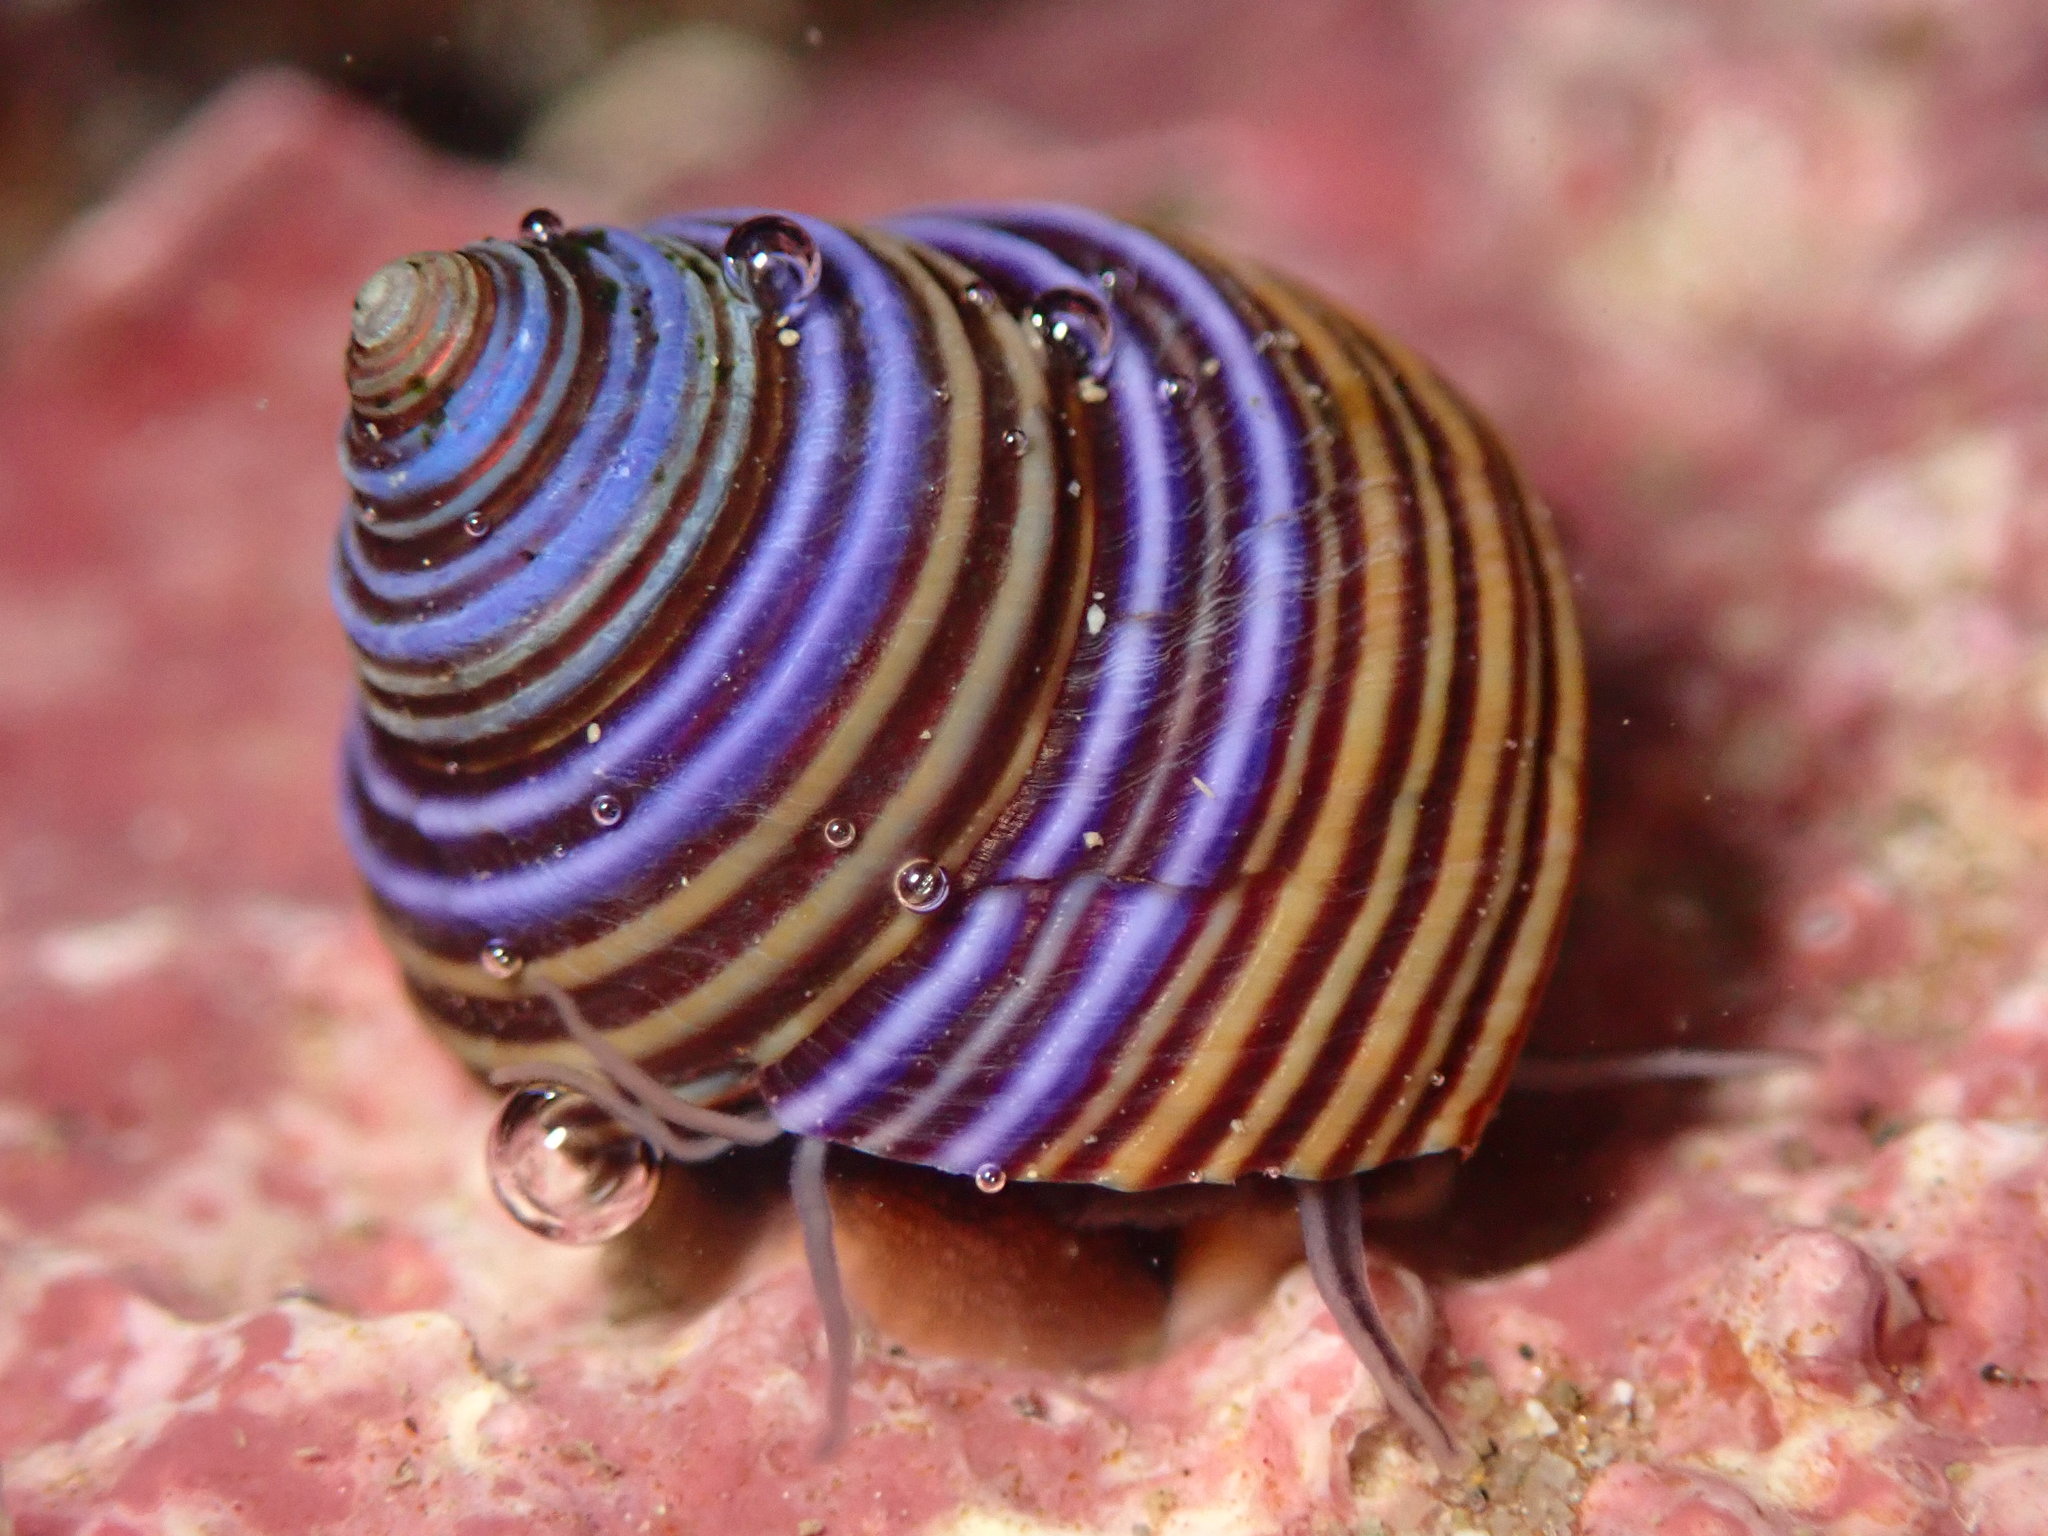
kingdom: Animalia
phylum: Mollusca
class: Gastropoda
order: Trochida
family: Calliostomatidae
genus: Calliostoma
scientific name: Calliostoma ligatum
